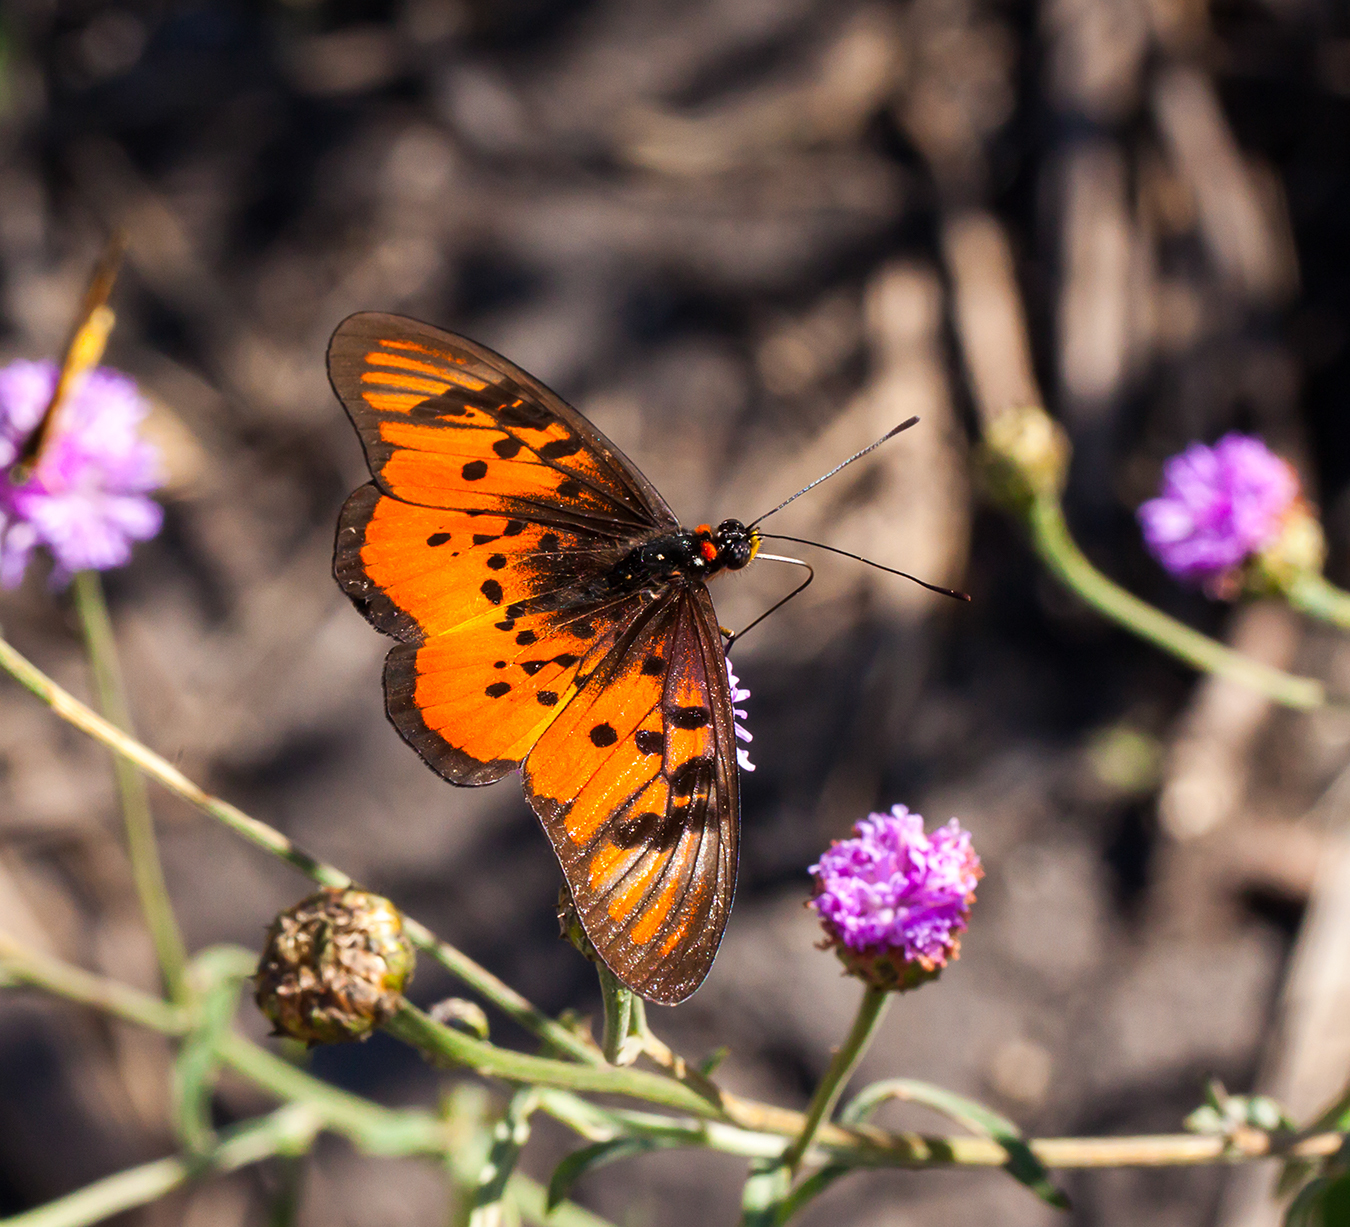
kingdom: Animalia
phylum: Arthropoda
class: Insecta
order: Lepidoptera
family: Nymphalidae
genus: Rubraea
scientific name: Rubraea
